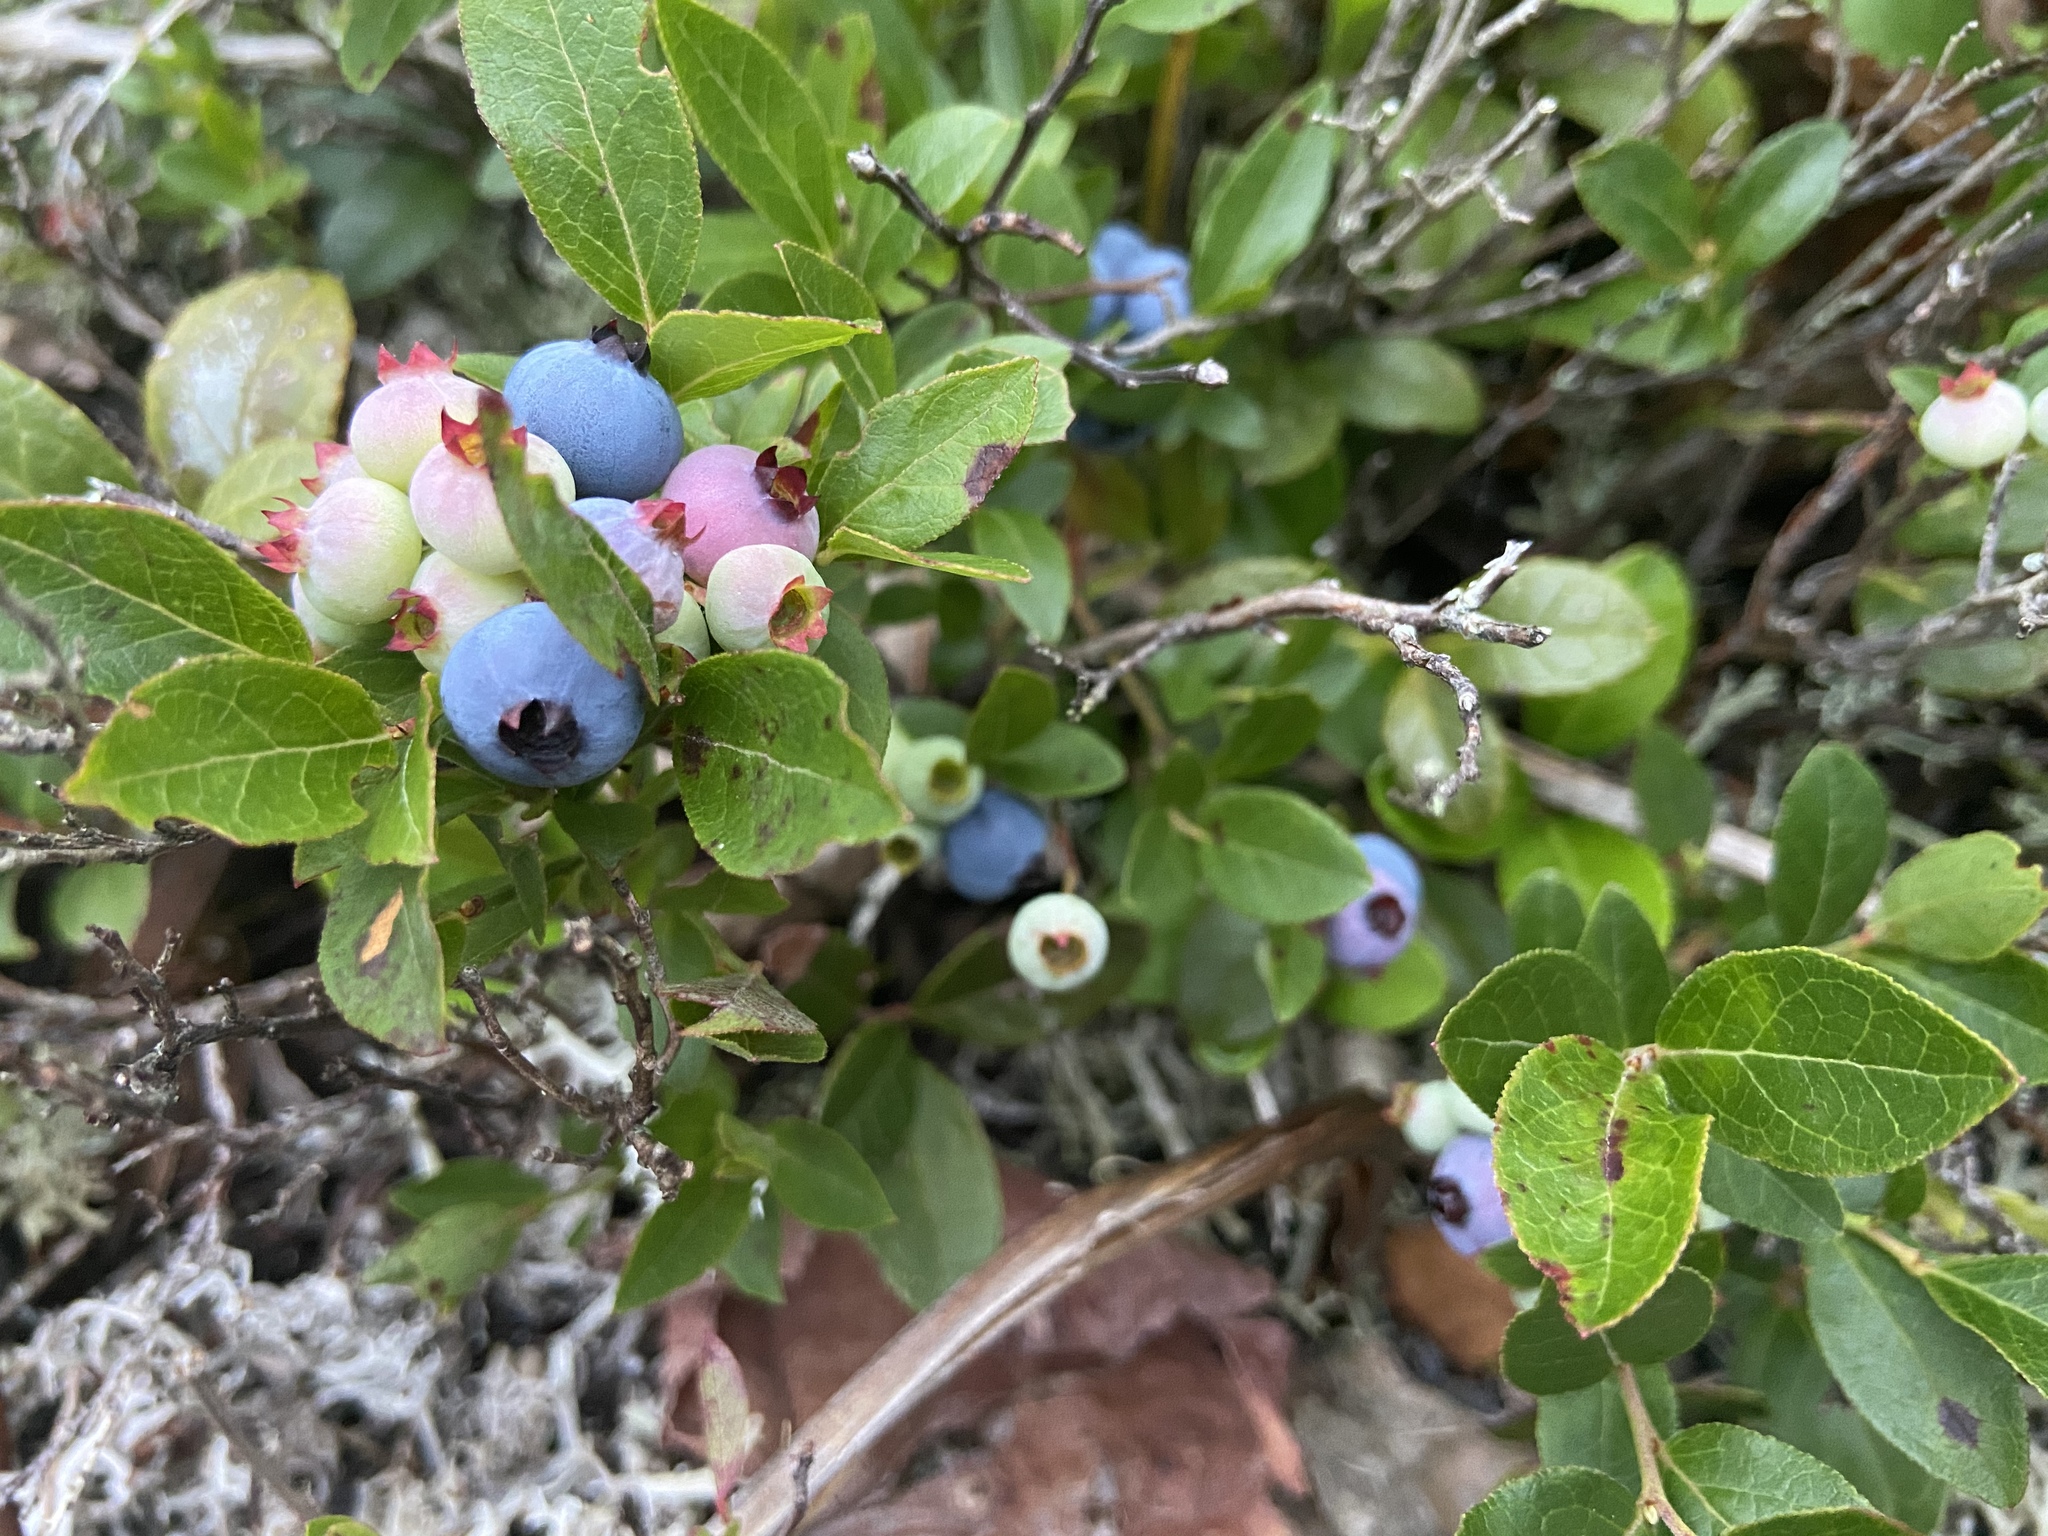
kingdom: Plantae
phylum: Tracheophyta
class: Magnoliopsida
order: Ericales
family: Ericaceae
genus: Vaccinium
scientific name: Vaccinium angustifolium
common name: Early lowbush blueberry
